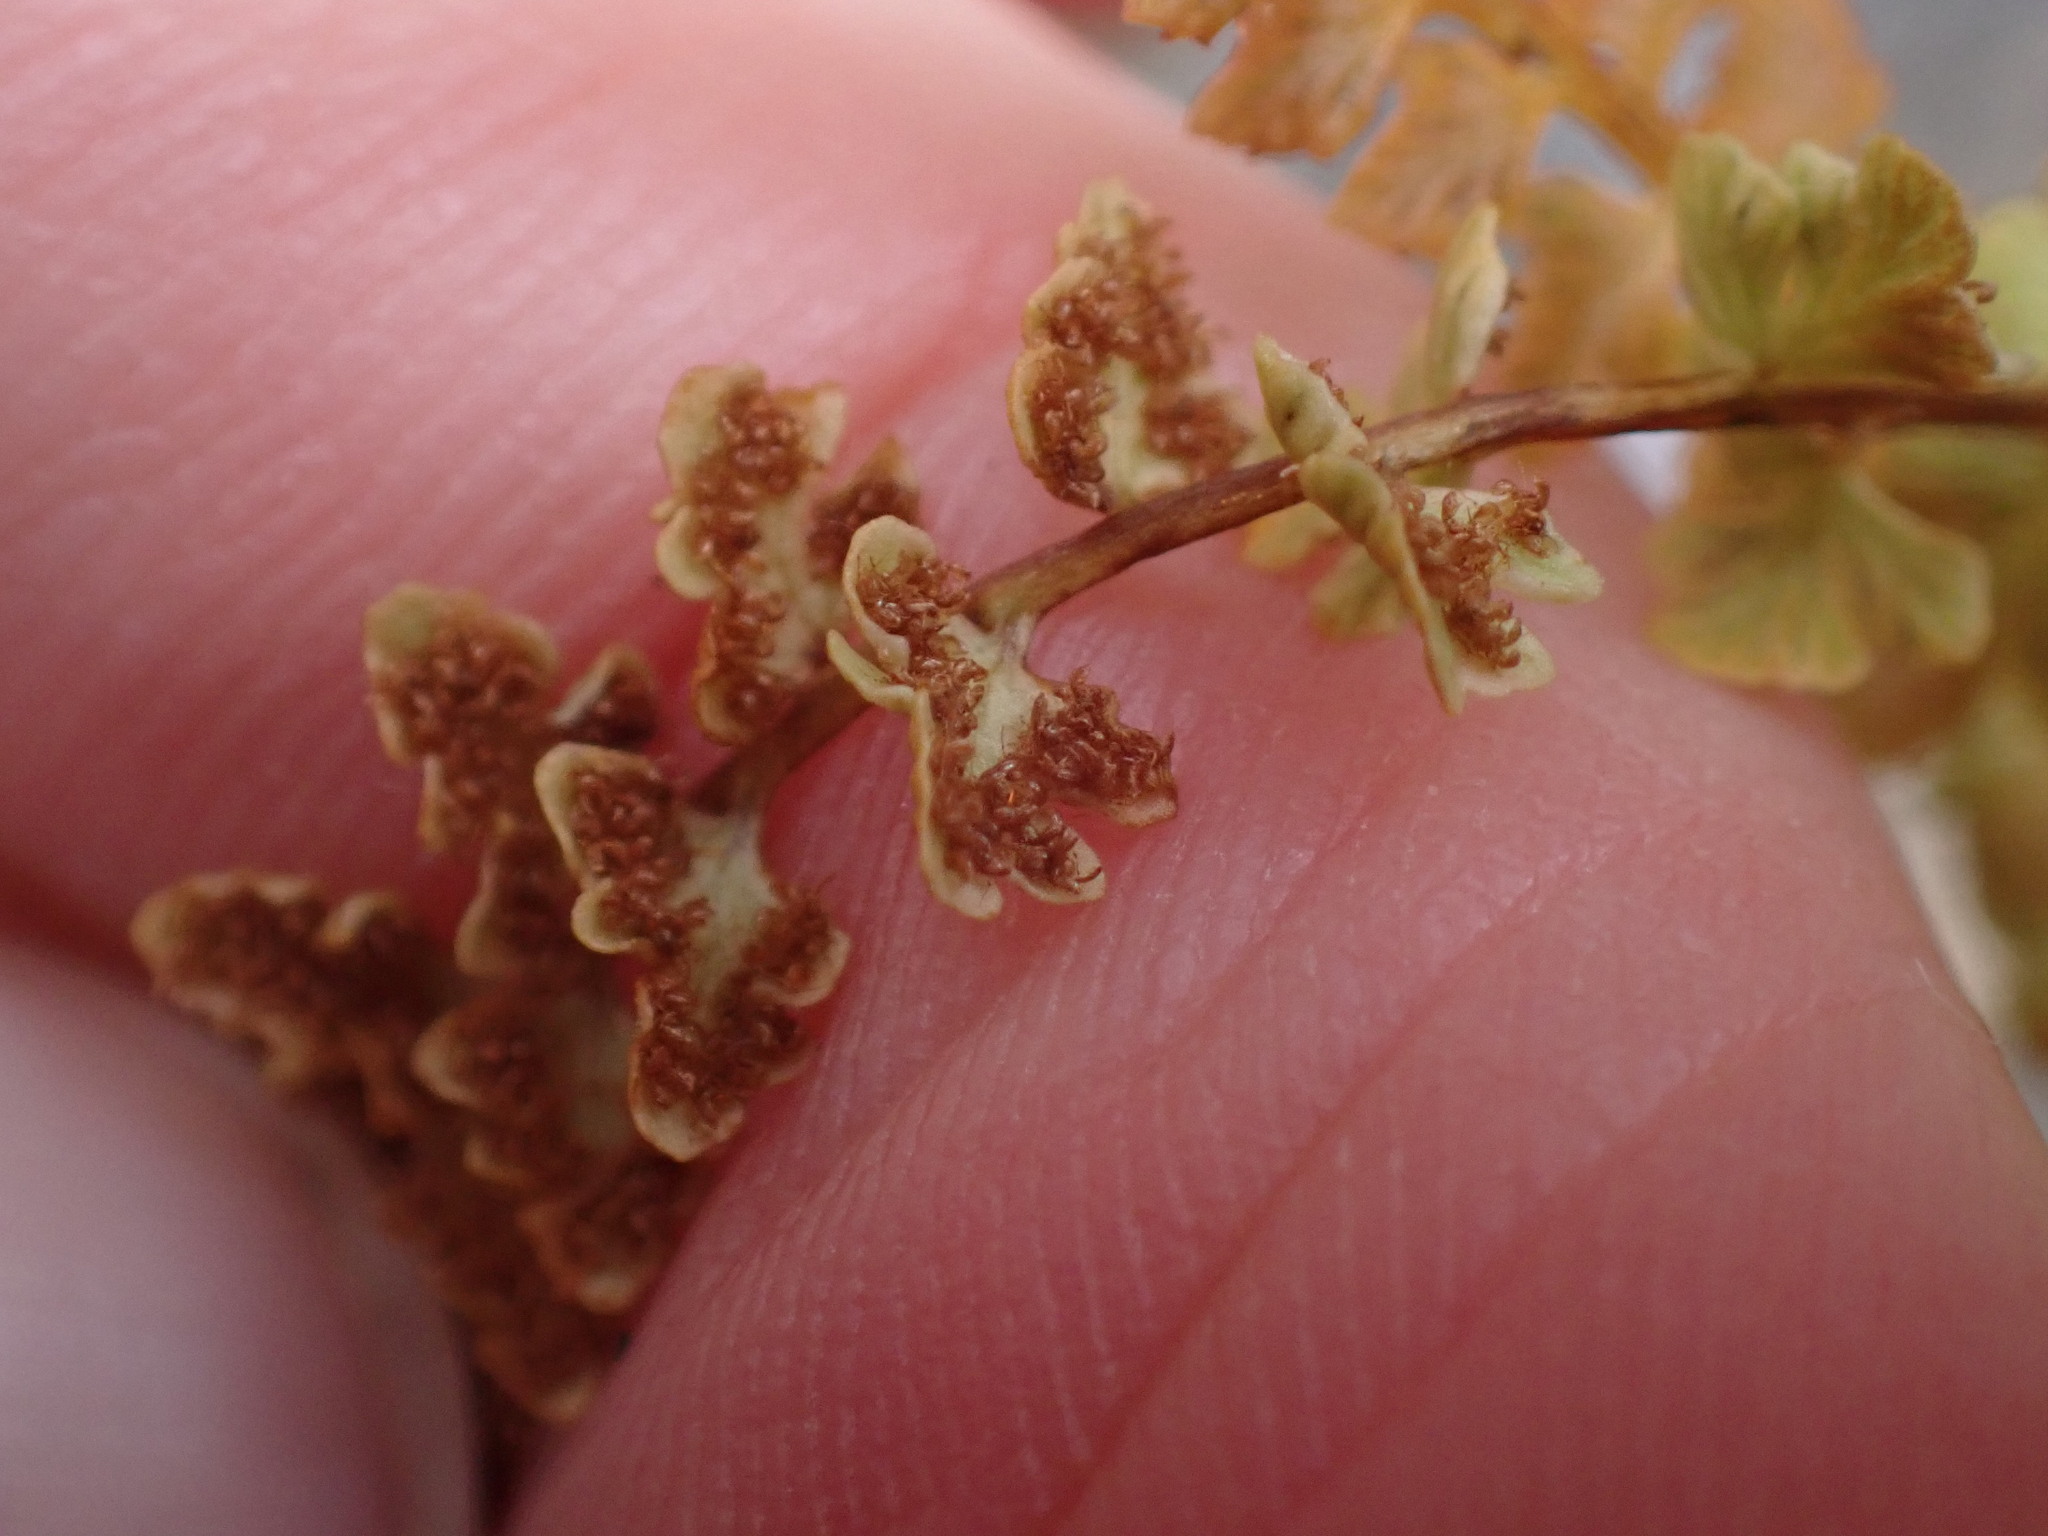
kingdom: Plantae
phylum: Tracheophyta
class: Polypodiopsida
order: Polypodiales
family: Woodsiaceae
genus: Woodsia
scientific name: Woodsia glabella
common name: Smooth woodsia
